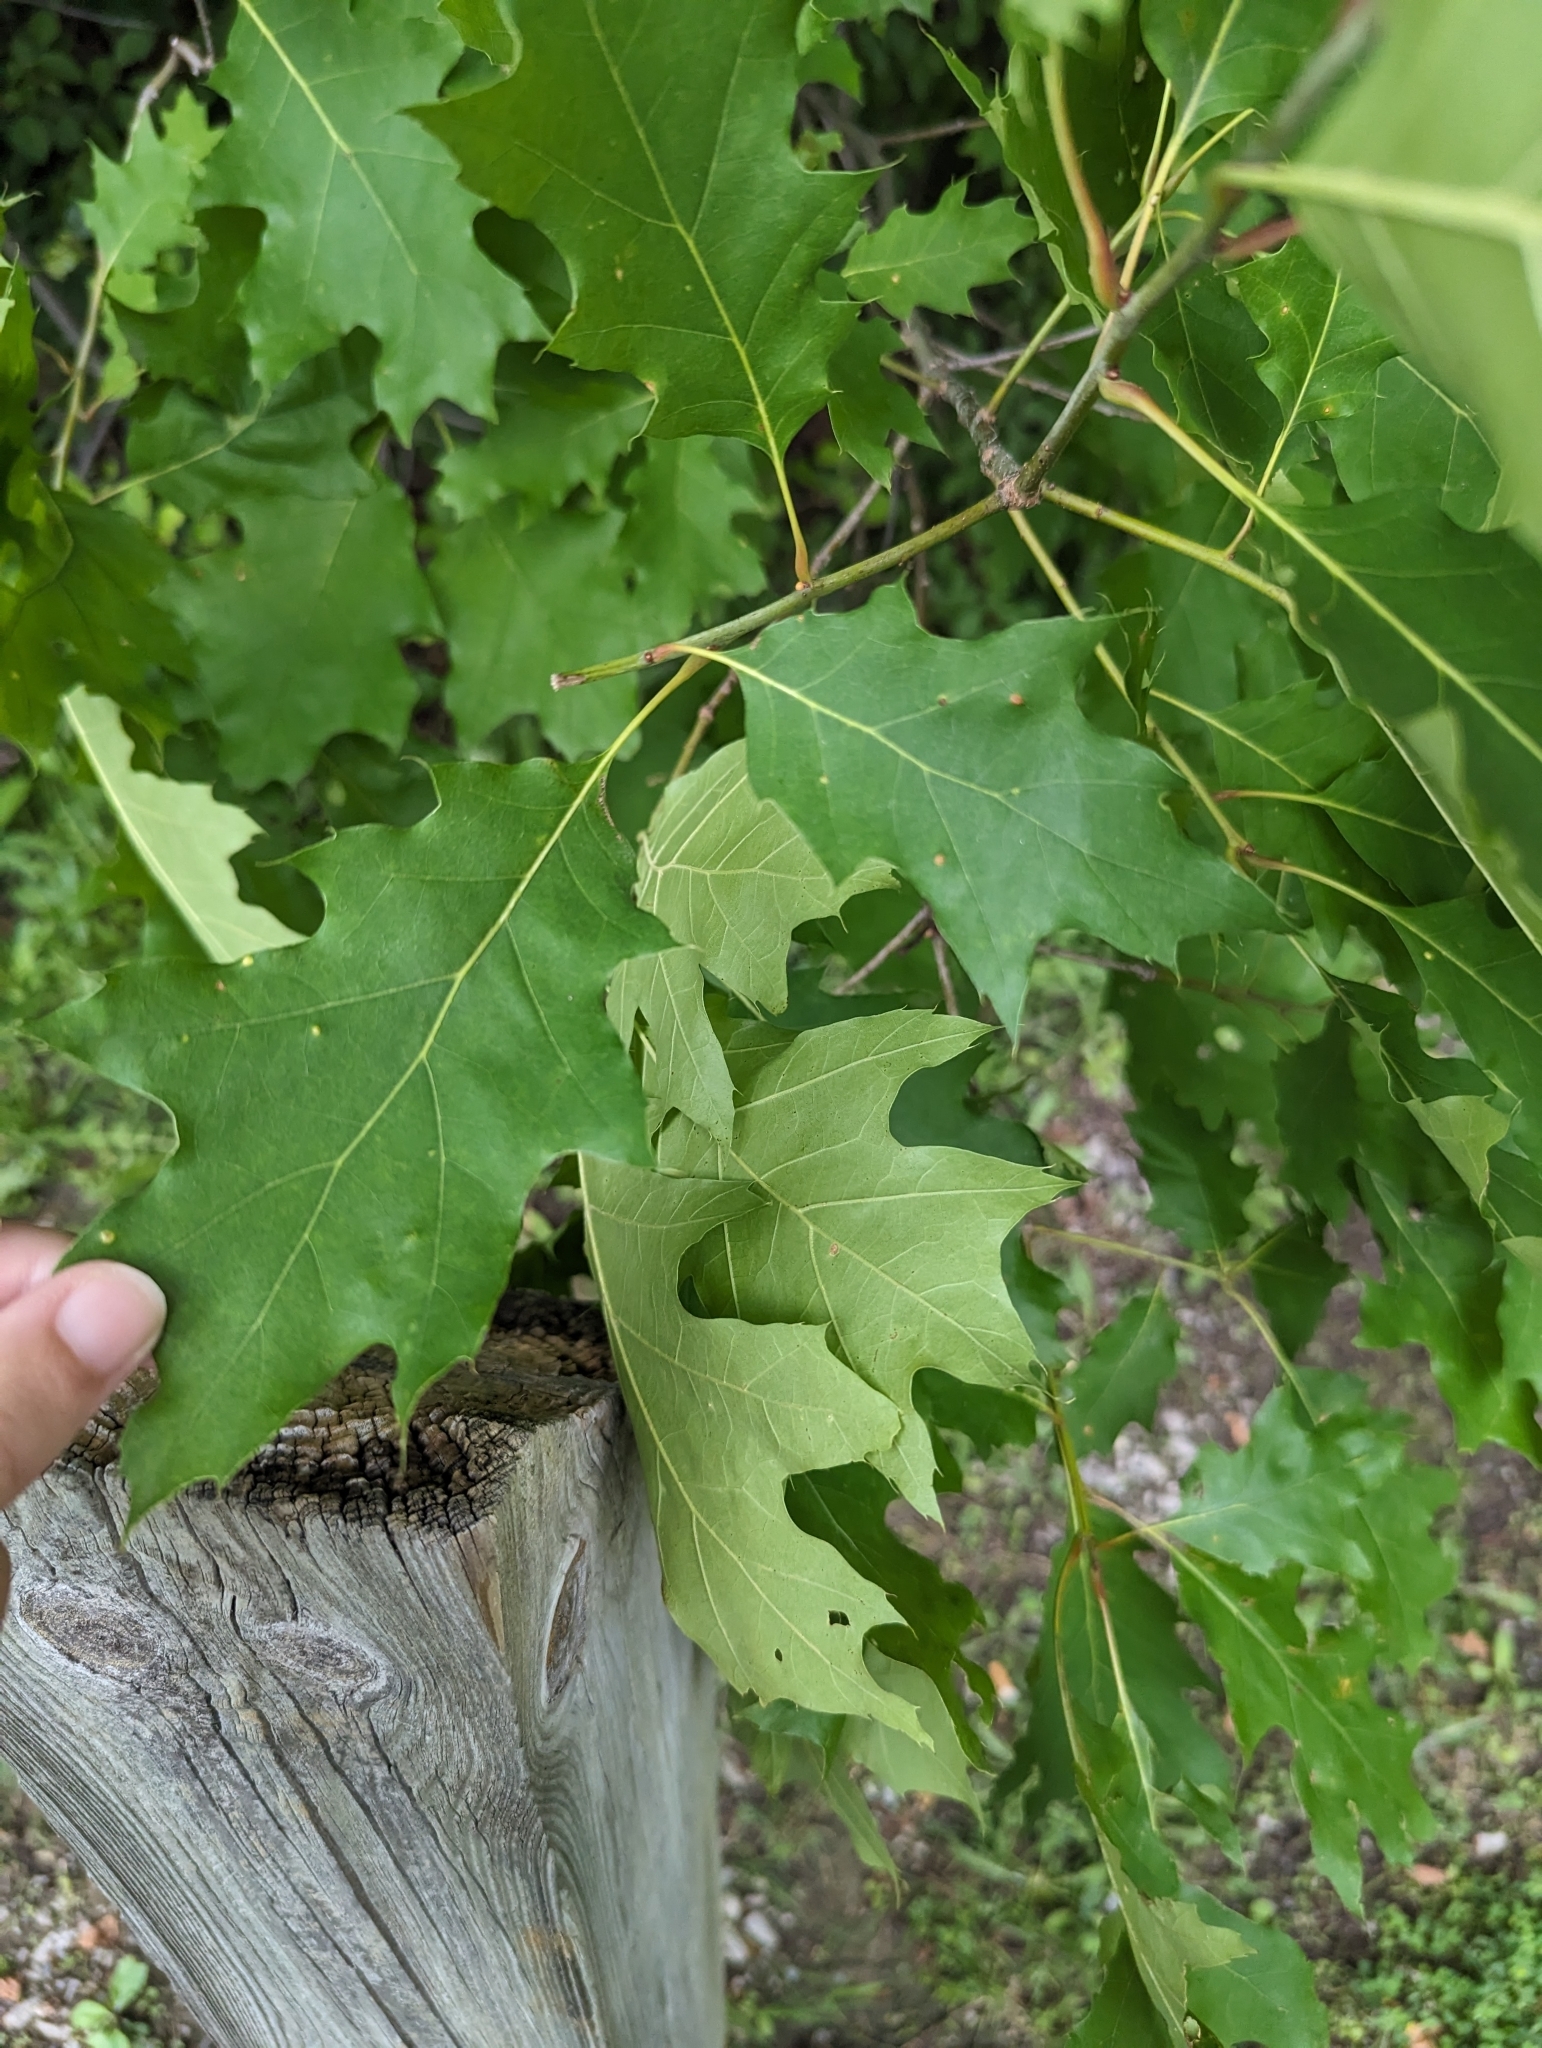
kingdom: Plantae
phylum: Tracheophyta
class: Magnoliopsida
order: Fagales
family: Fagaceae
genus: Quercus
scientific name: Quercus rubra
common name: Red oak
